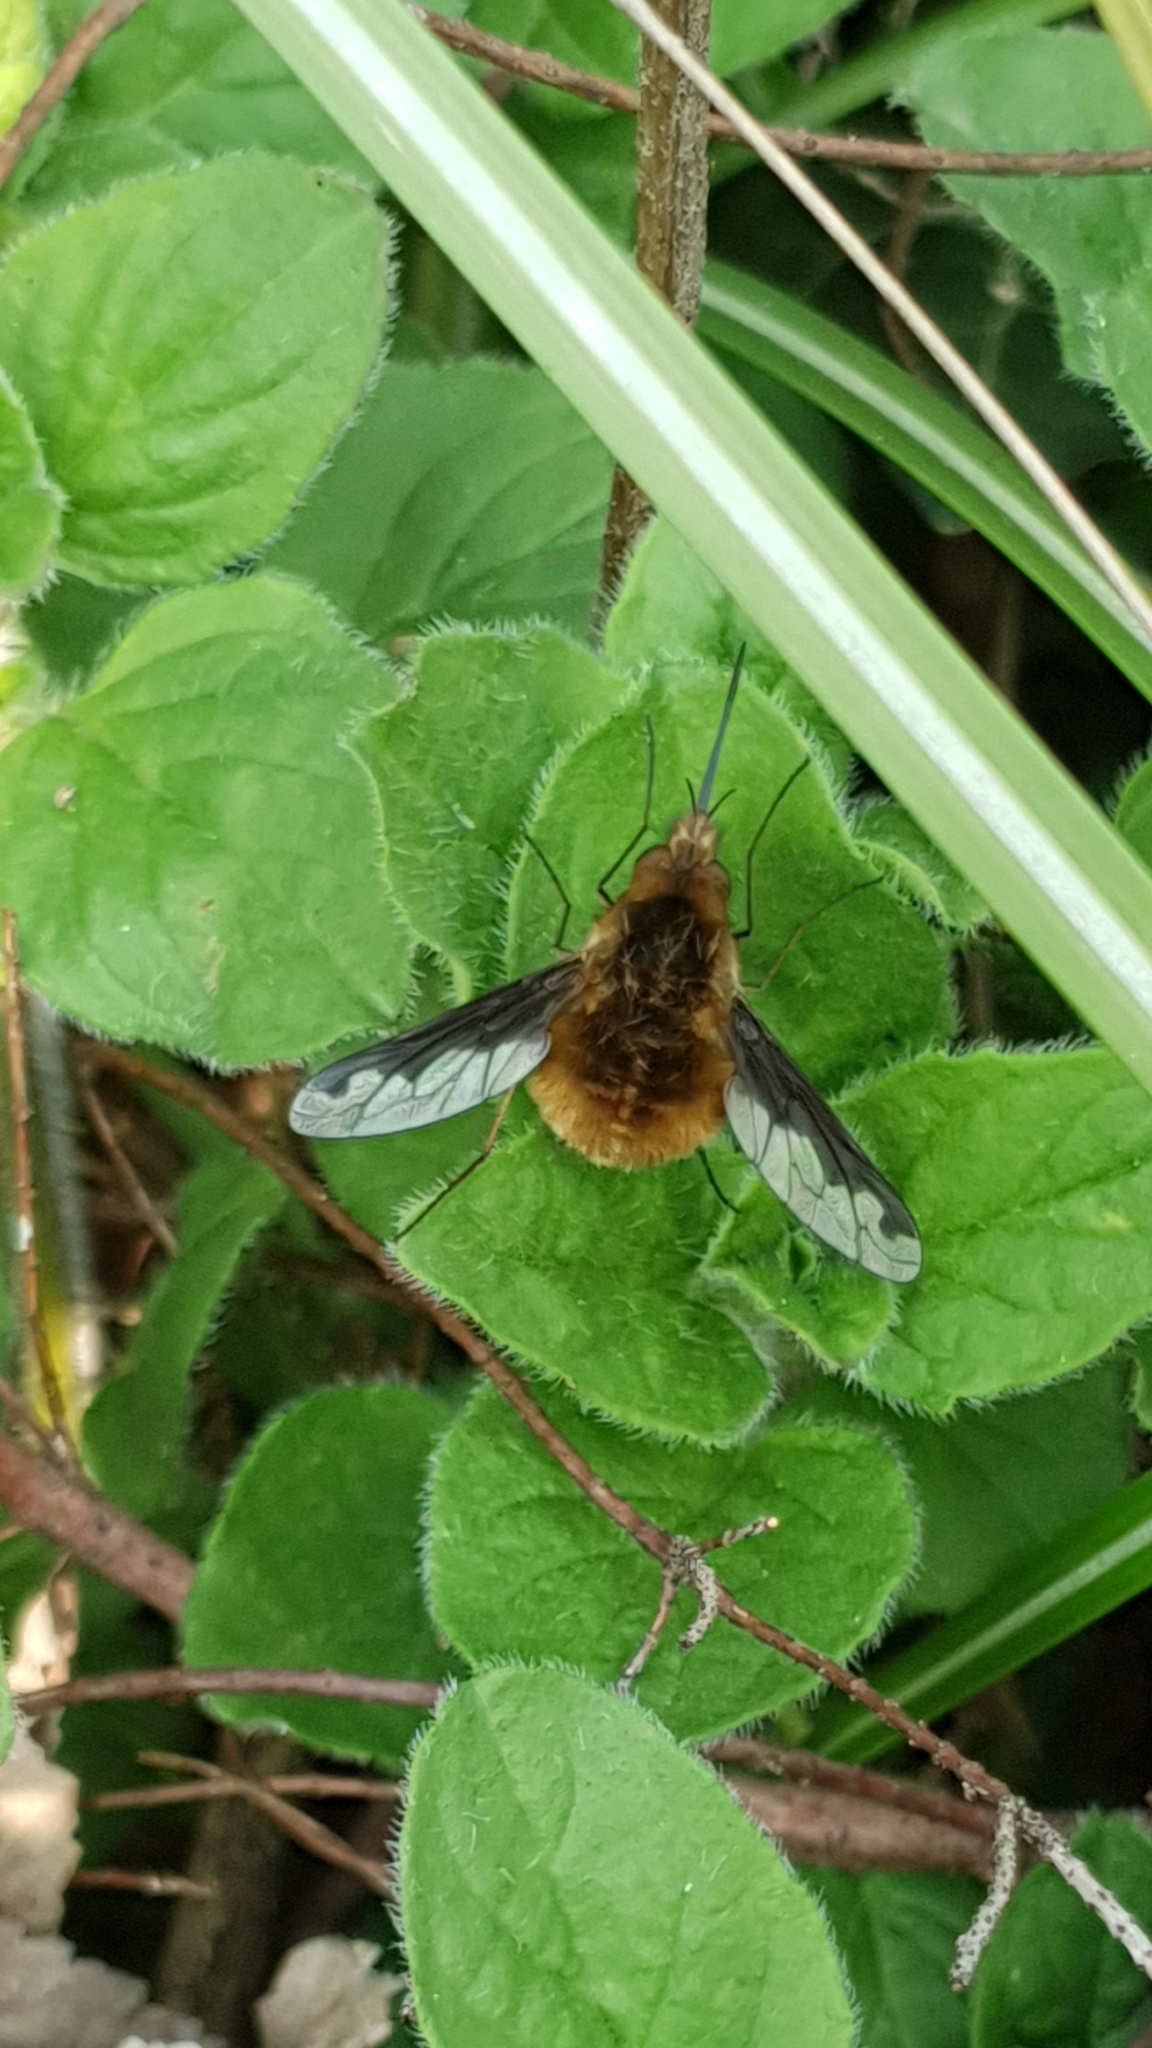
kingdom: Animalia
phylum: Arthropoda
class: Insecta
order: Diptera
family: Bombyliidae
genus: Bombylius
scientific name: Bombylius major
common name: Bee fly
